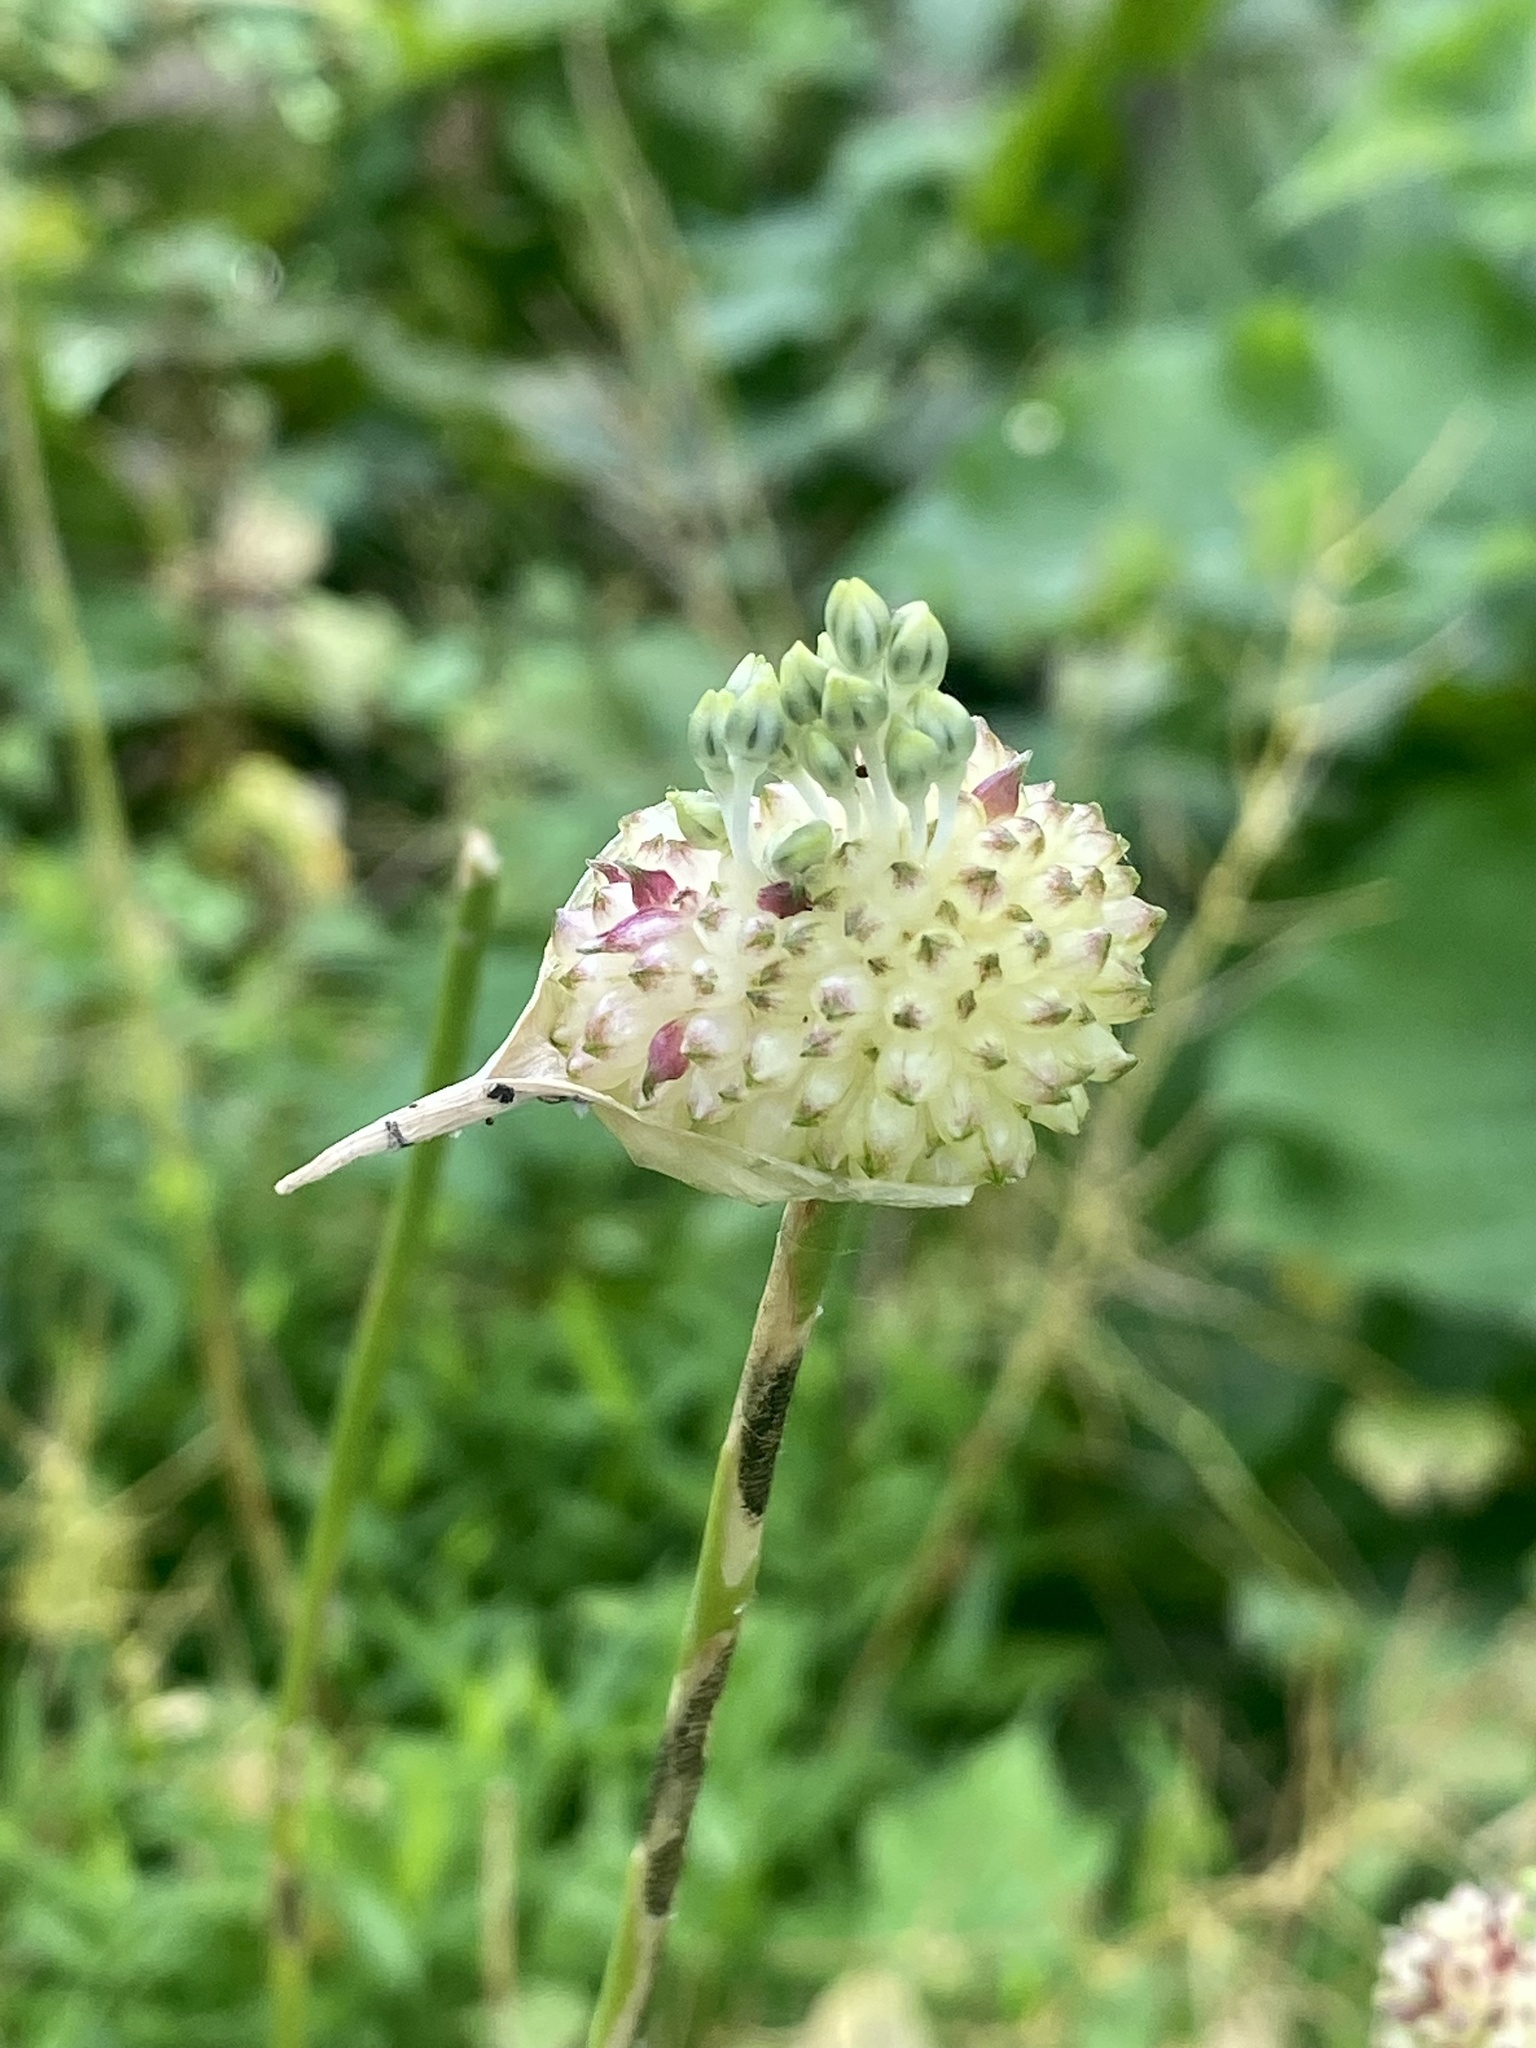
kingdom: Plantae
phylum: Tracheophyta
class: Liliopsida
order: Asparagales
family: Amaryllidaceae
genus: Allium
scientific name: Allium vineale
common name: Crow garlic
